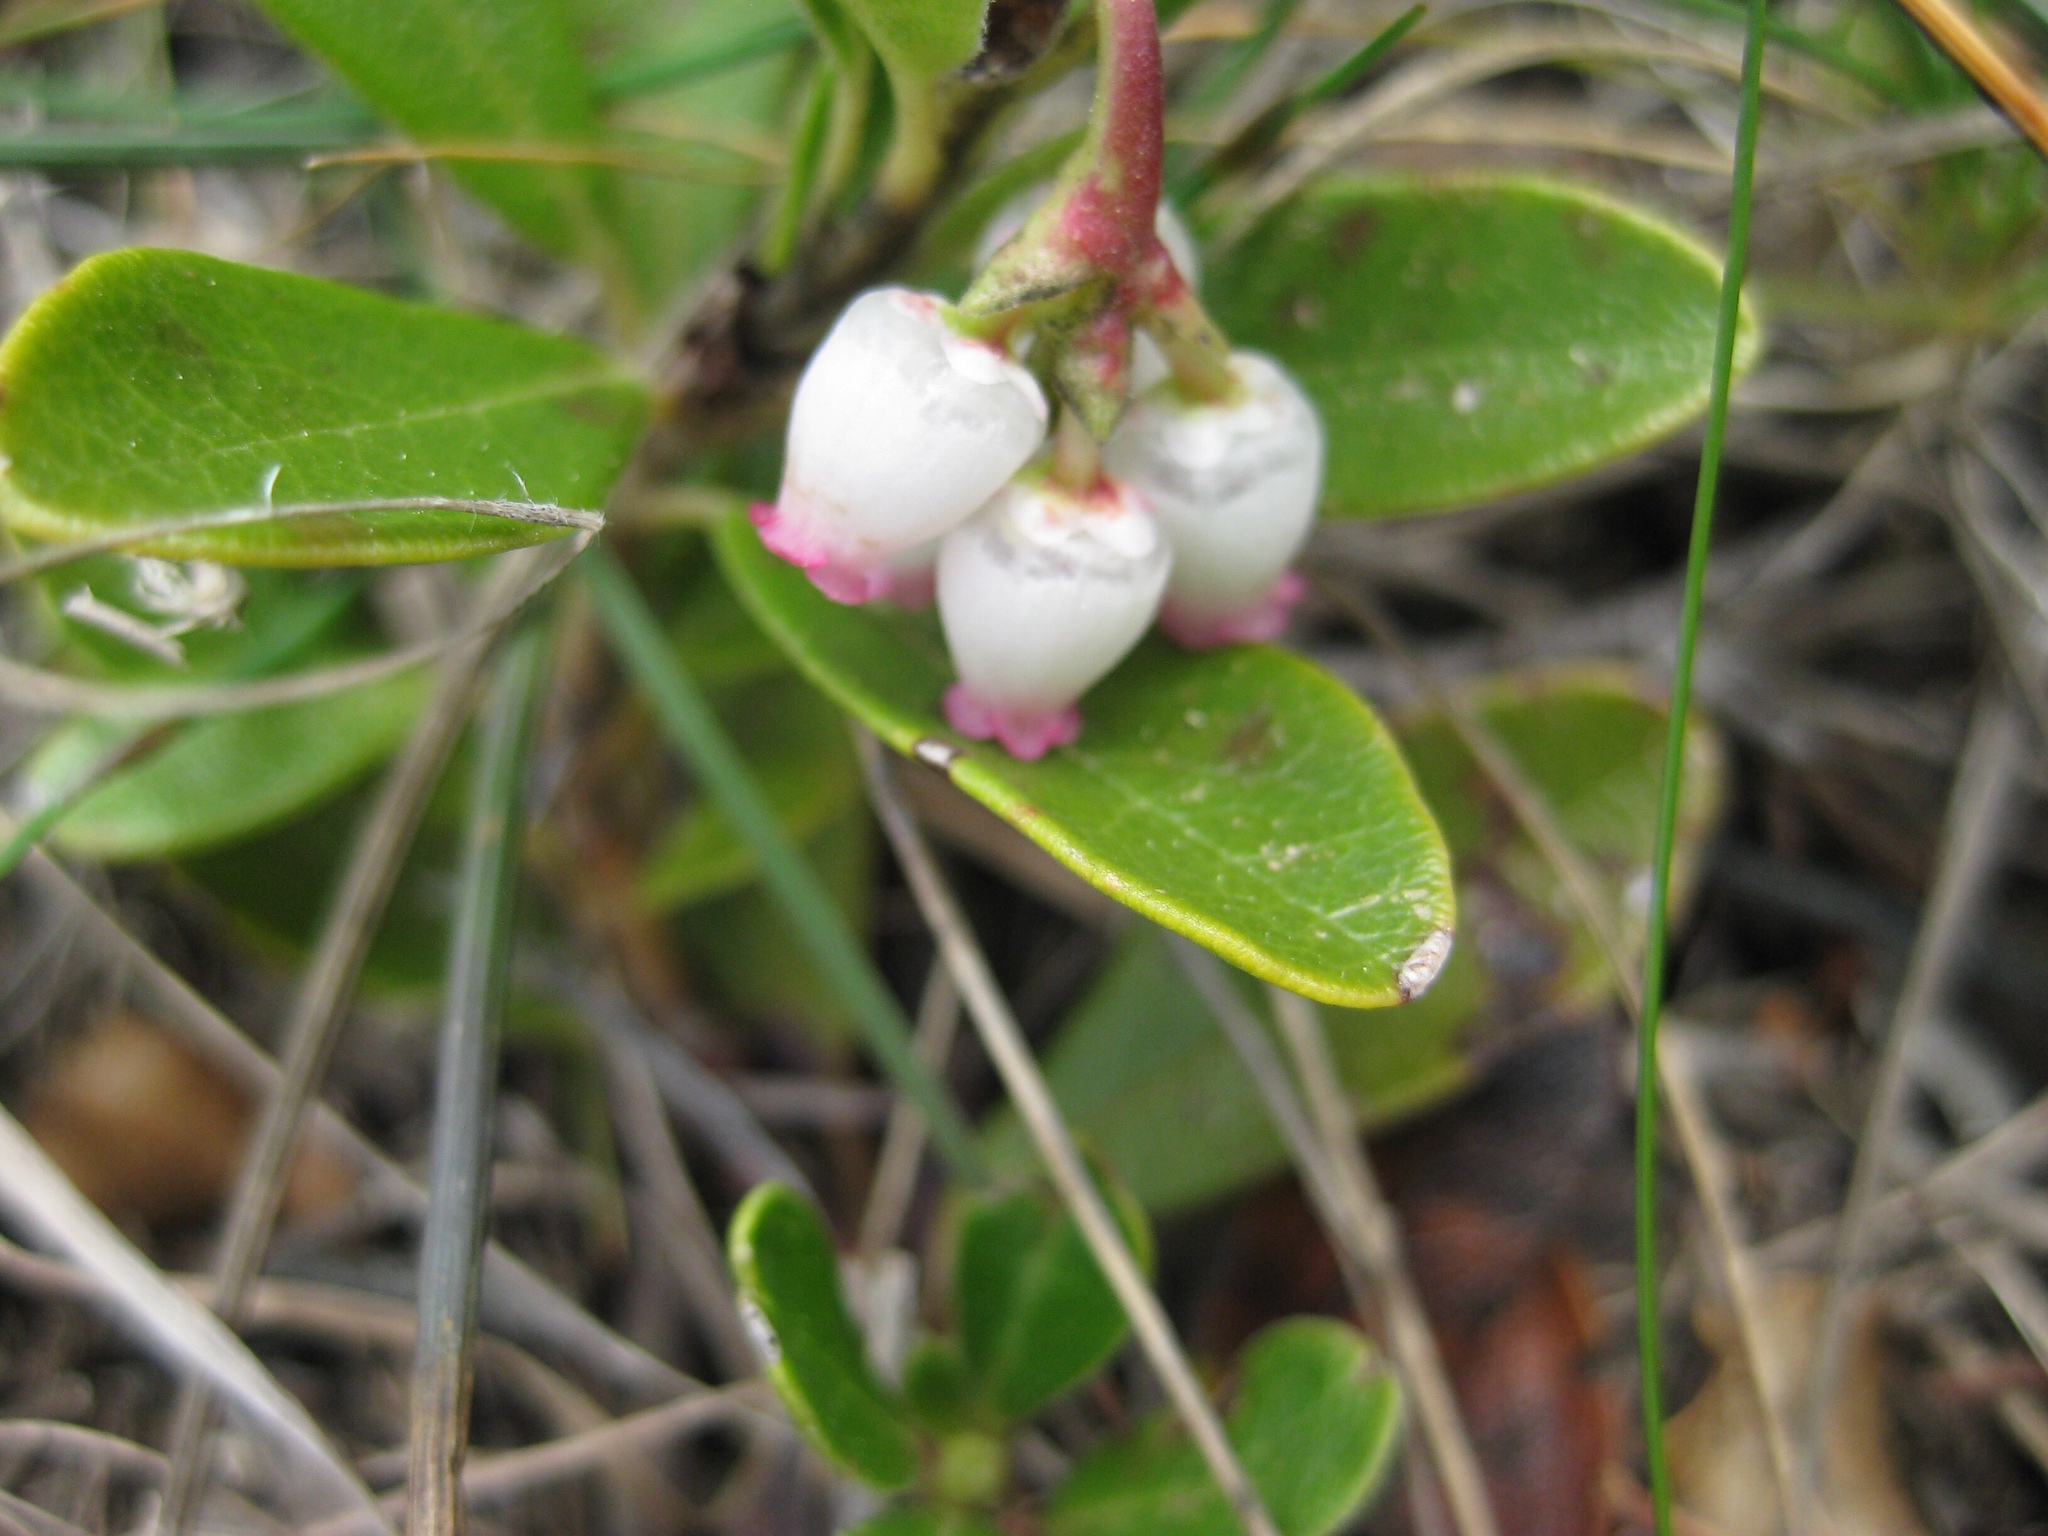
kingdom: Plantae
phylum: Tracheophyta
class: Magnoliopsida
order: Ericales
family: Ericaceae
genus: Arctostaphylos
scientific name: Arctostaphylos uva-ursi
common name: Bearberry
